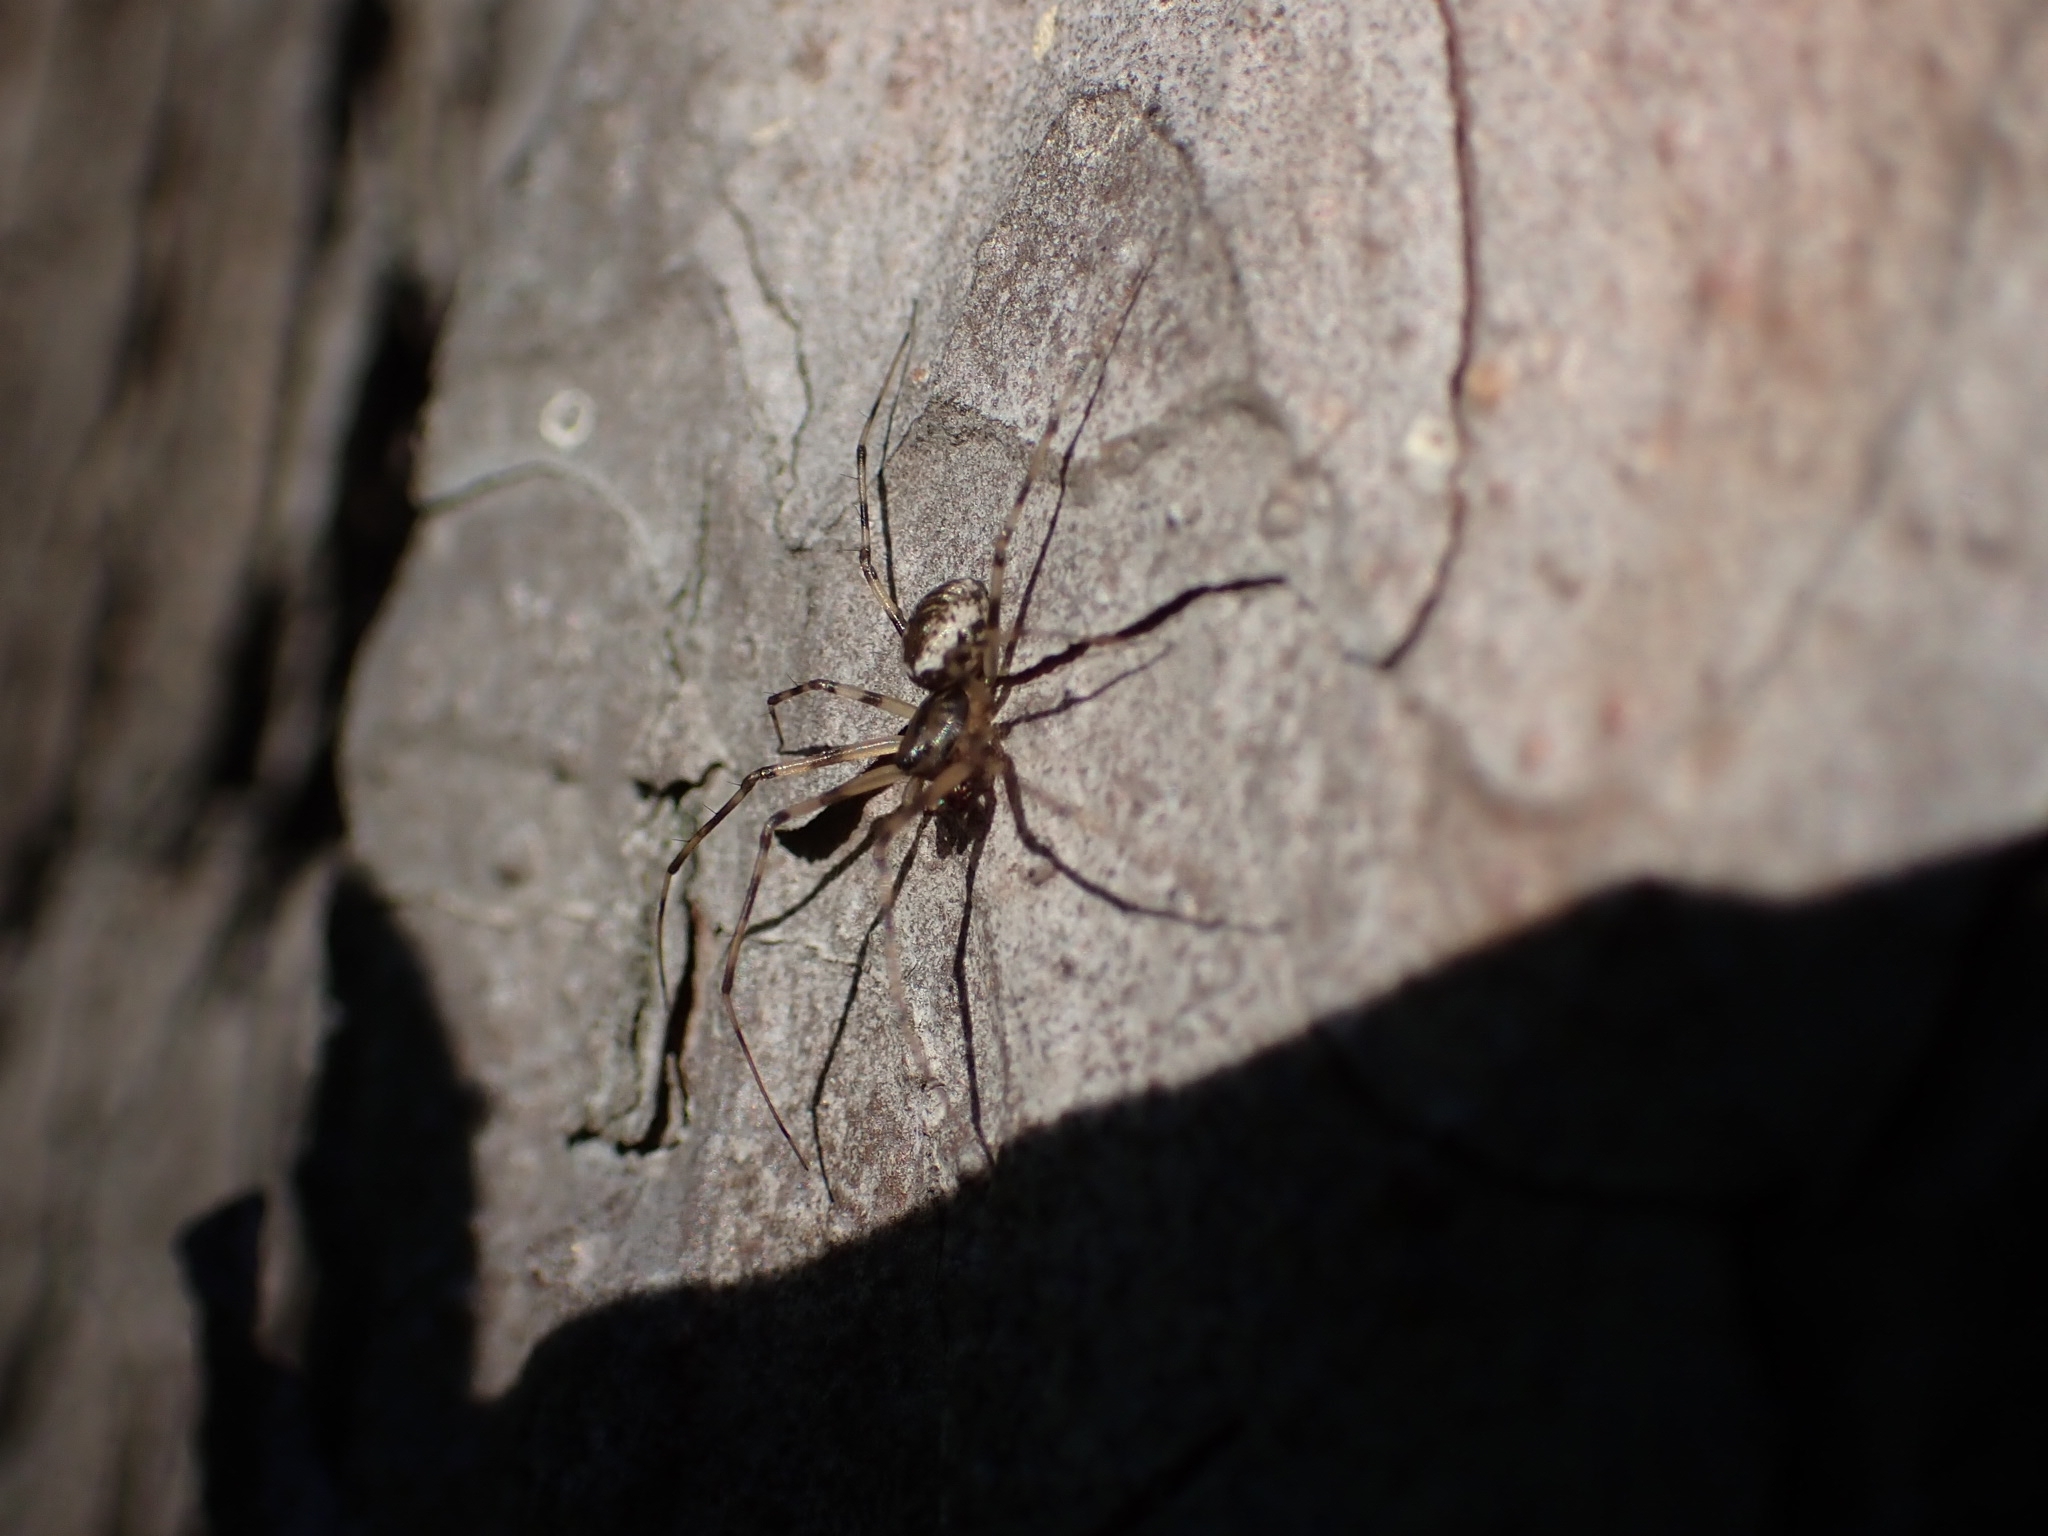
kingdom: Animalia
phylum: Arthropoda
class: Arachnida
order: Araneae
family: Linyphiidae
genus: Drapetisca
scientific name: Drapetisca socialis
